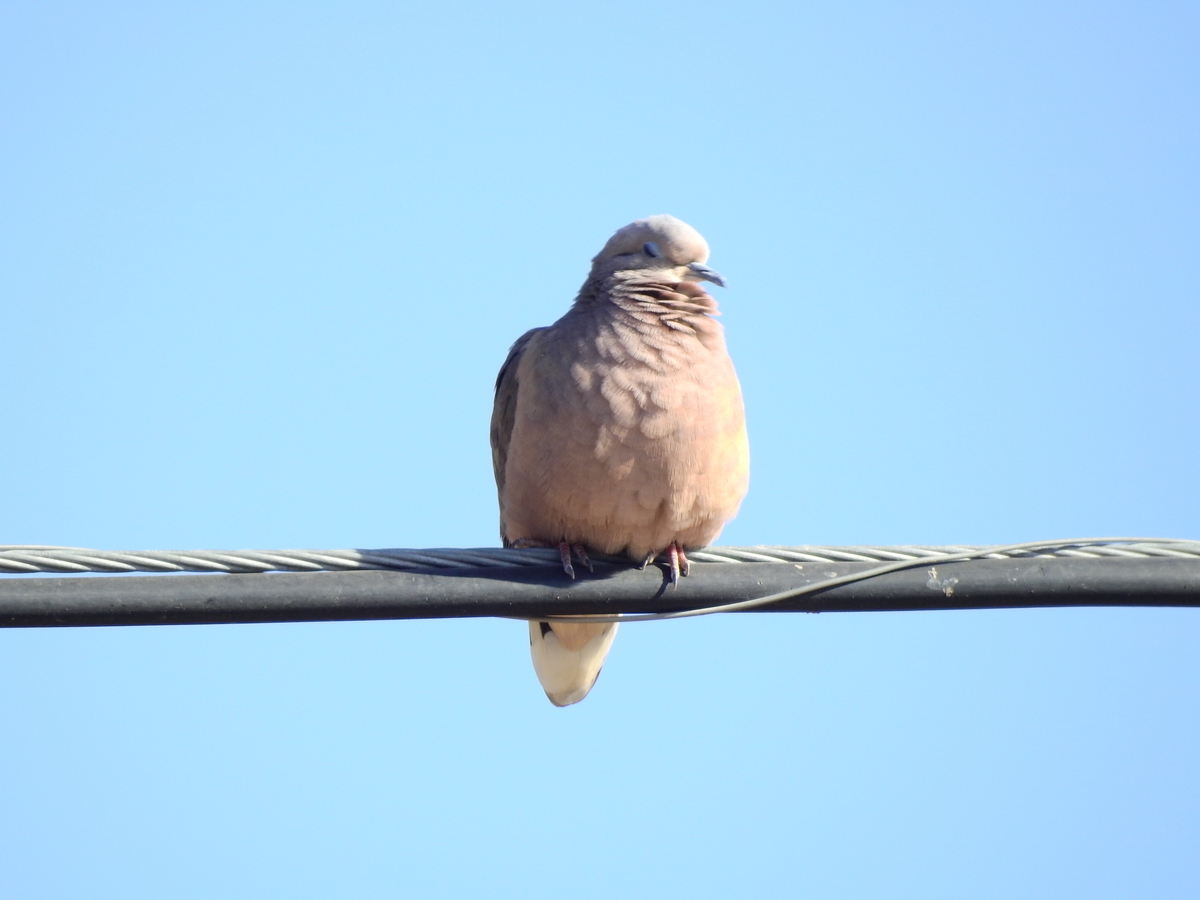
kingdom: Animalia
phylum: Chordata
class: Aves
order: Columbiformes
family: Columbidae
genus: Columbina
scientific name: Columbina picui
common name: Picui ground dove
